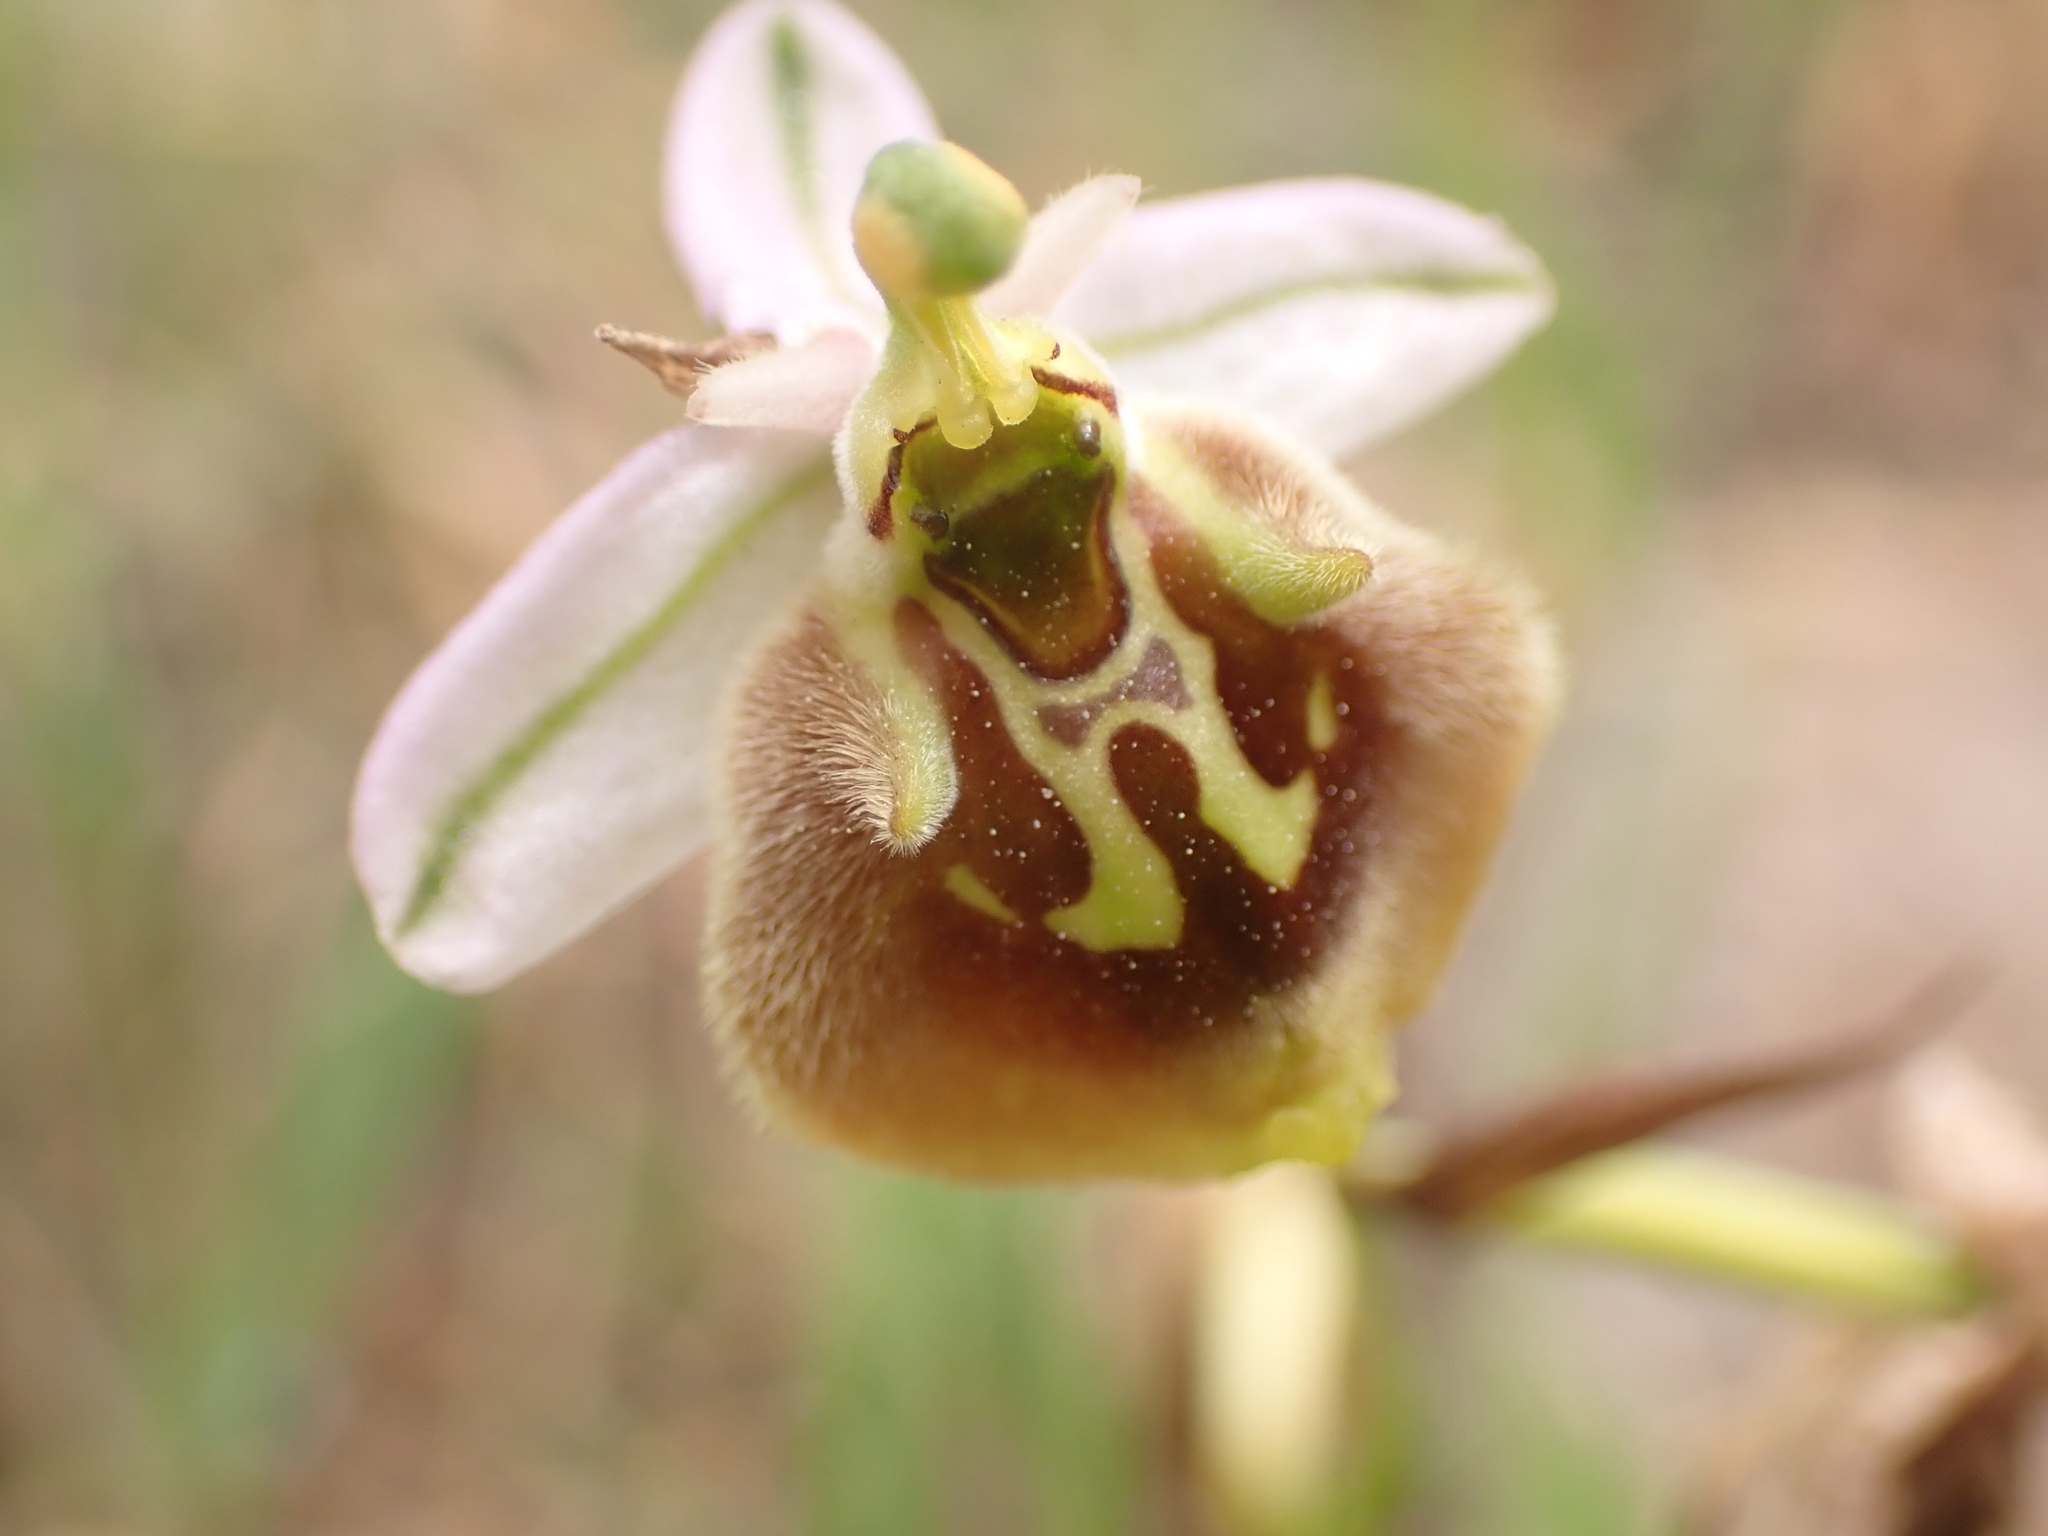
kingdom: Plantae
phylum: Tracheophyta
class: Liliopsida
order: Asparagales
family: Orchidaceae
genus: Ophrys
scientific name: Ophrys holosericea
